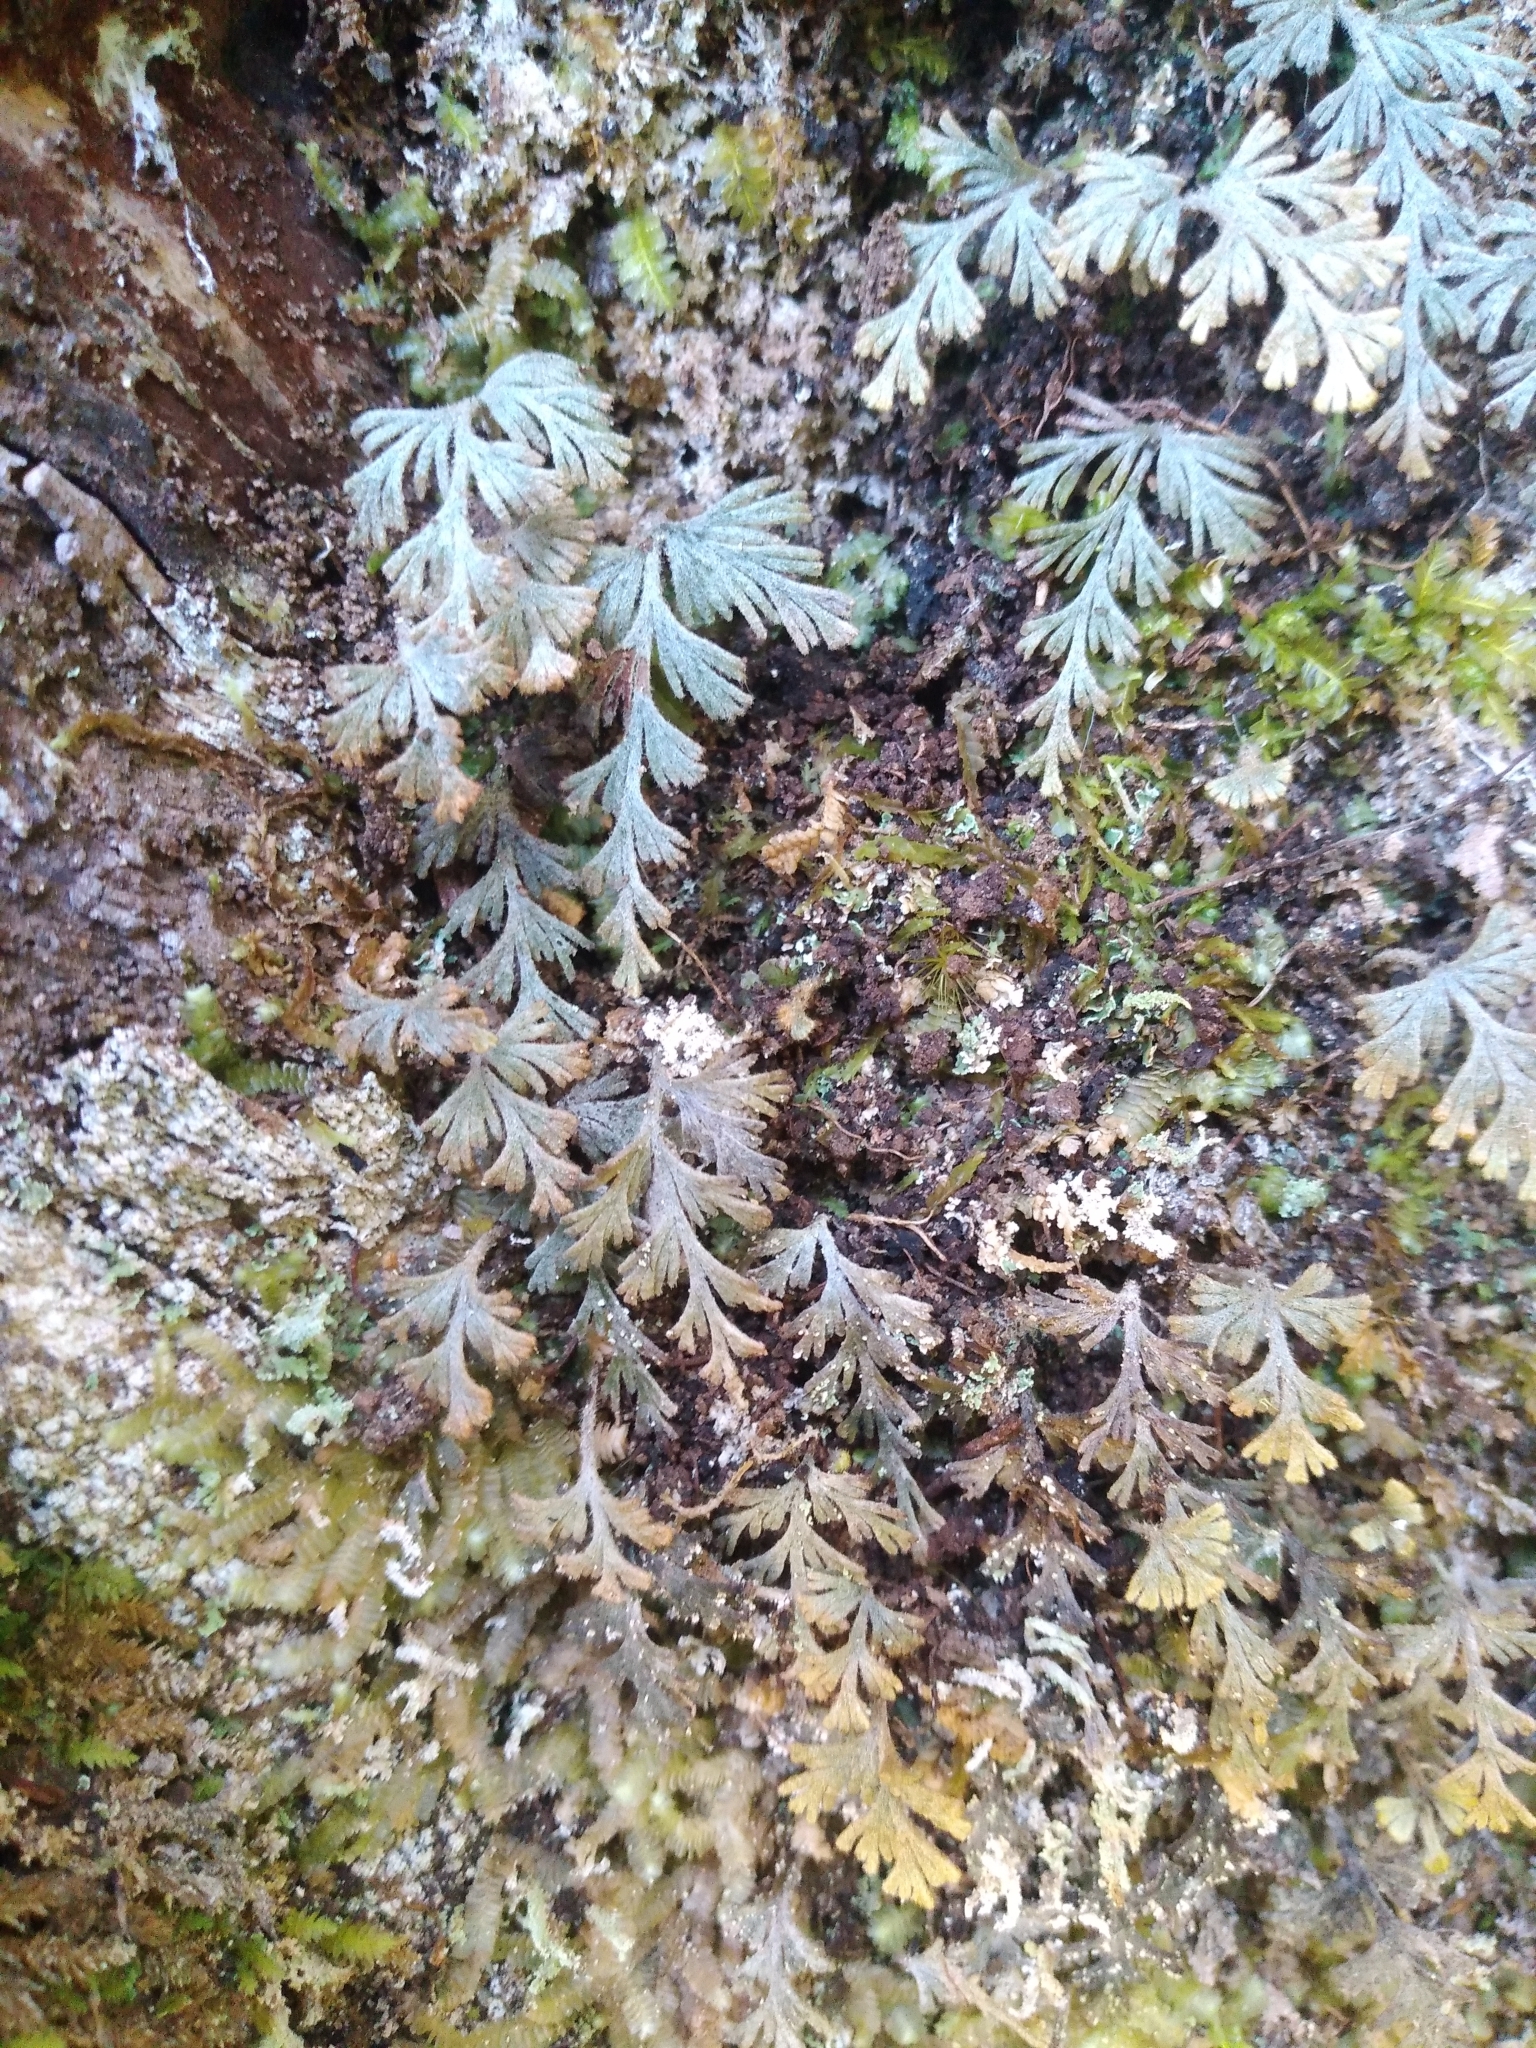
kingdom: Plantae
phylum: Tracheophyta
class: Polypodiopsida
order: Hymenophyllales
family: Hymenophyllaceae
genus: Hymenophyllum
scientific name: Hymenophyllum malingii
